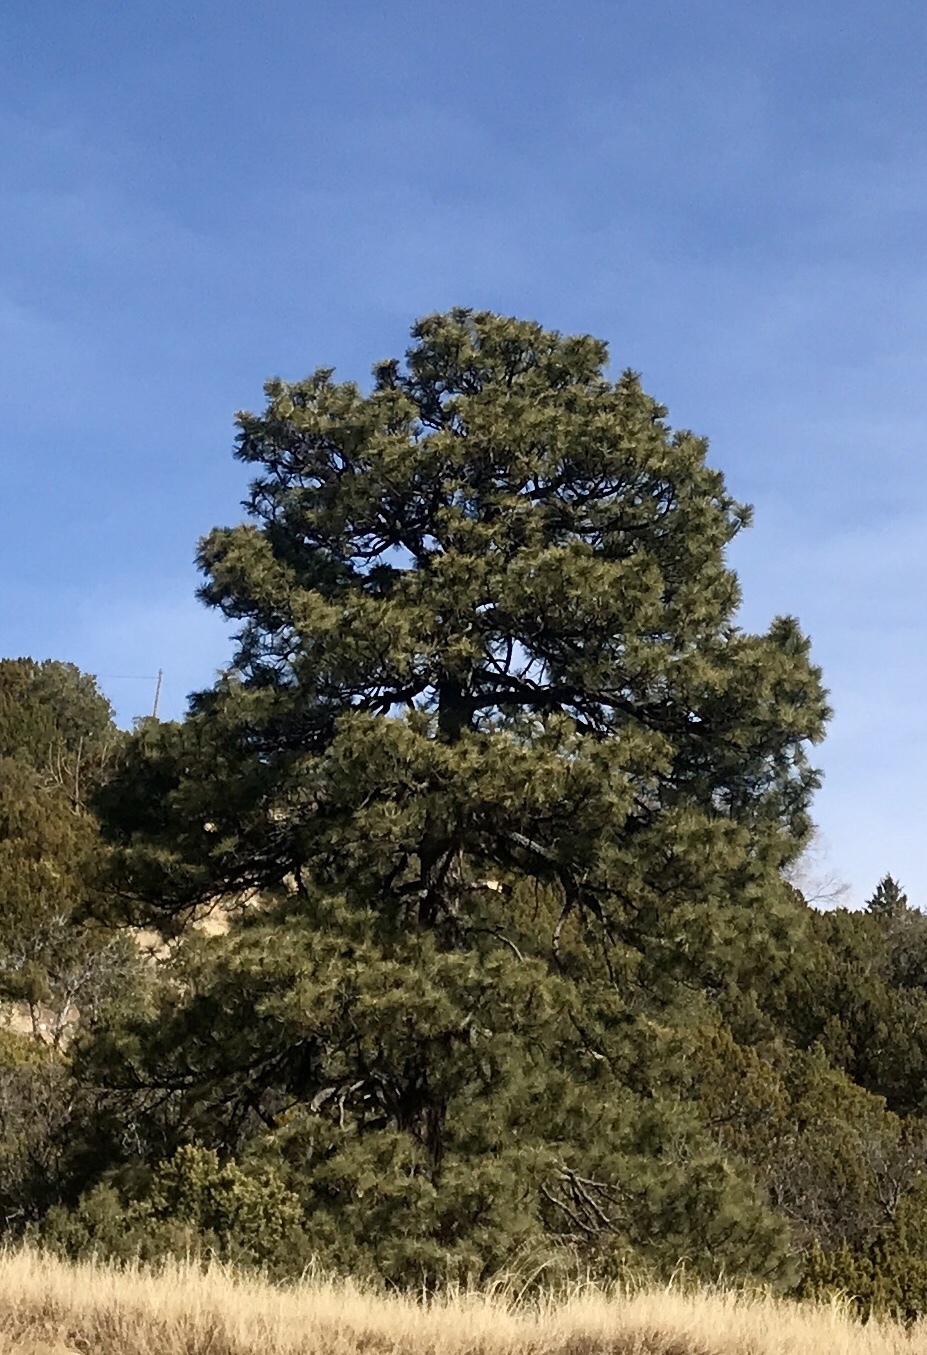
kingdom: Plantae
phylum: Tracheophyta
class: Pinopsida
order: Pinales
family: Pinaceae
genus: Pinus
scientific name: Pinus ponderosa
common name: Western yellow-pine
